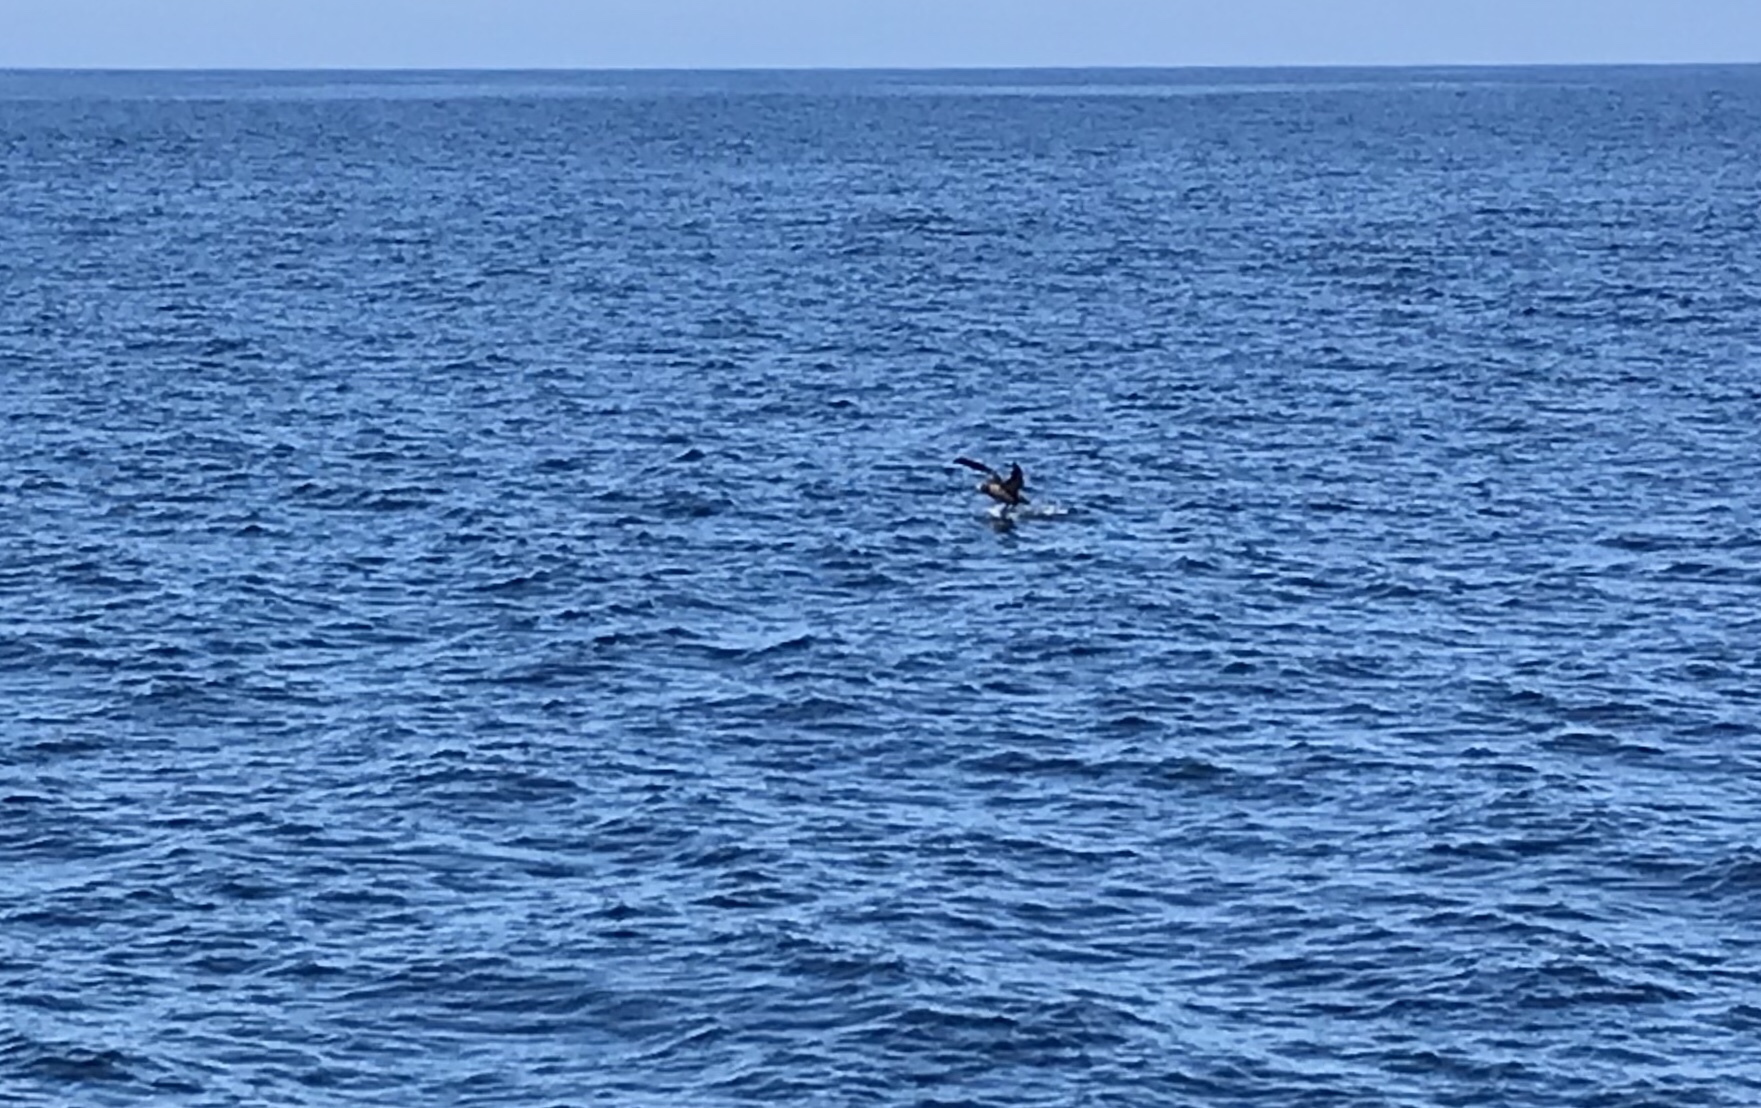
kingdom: Animalia
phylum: Chordata
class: Aves
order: Procellariiformes
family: Diomedeidae
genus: Phoebastria
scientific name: Phoebastria nigripes
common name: Black-footed albatross
